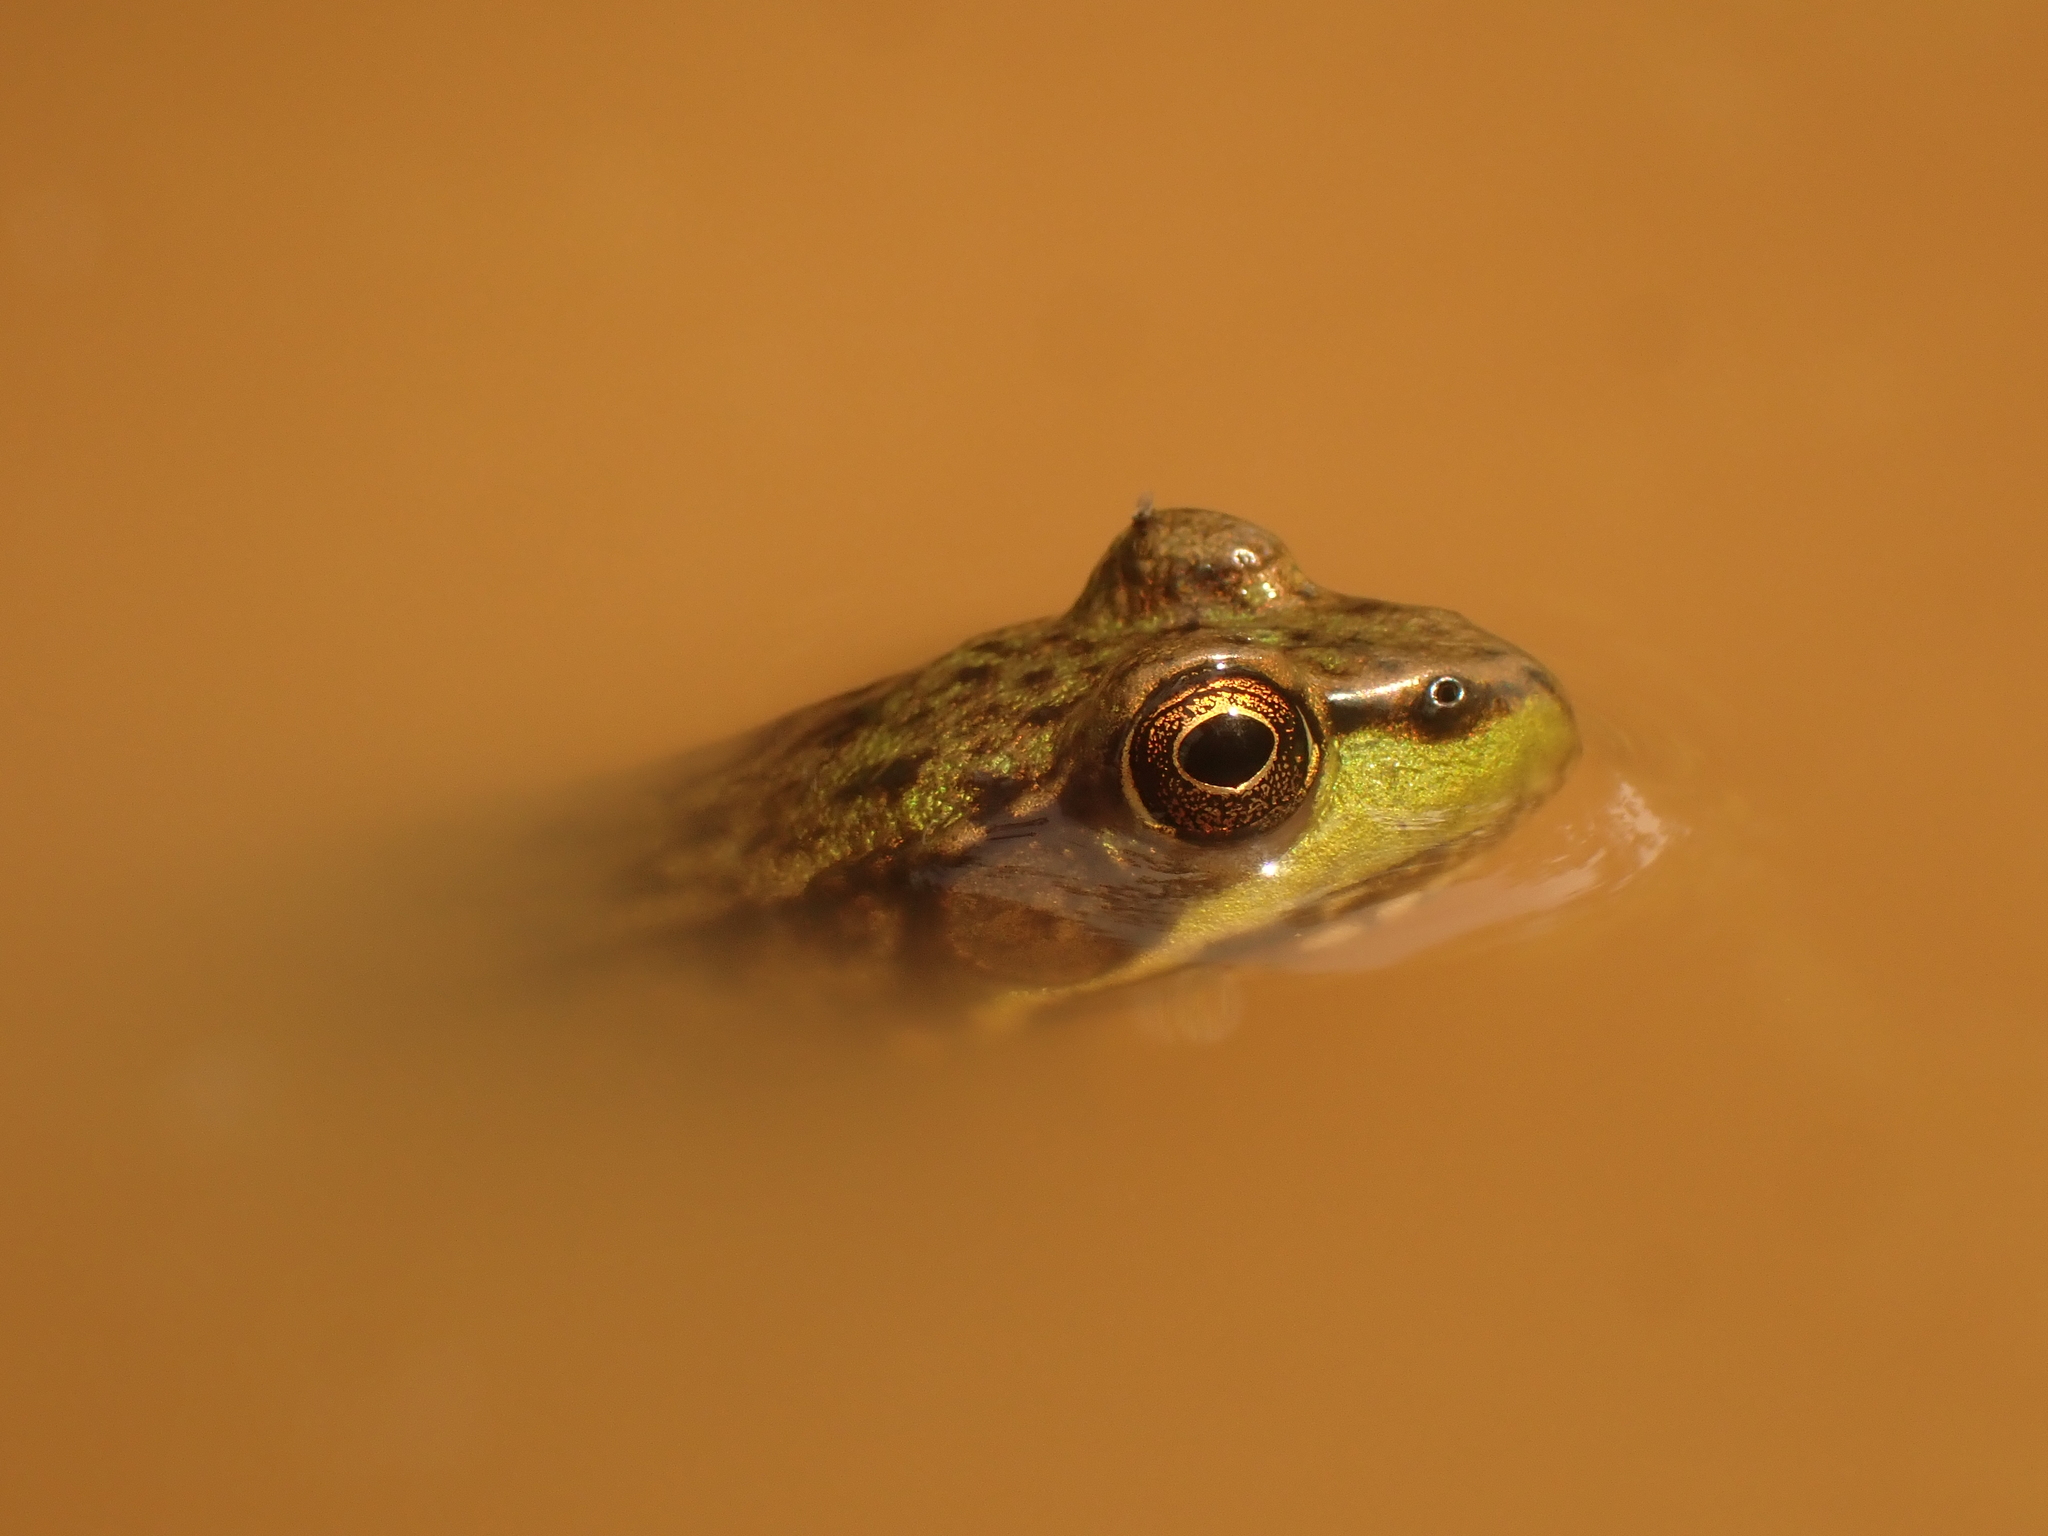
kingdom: Animalia
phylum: Chordata
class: Amphibia
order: Anura
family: Ranidae
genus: Lithobates
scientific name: Lithobates clamitans
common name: Green frog
